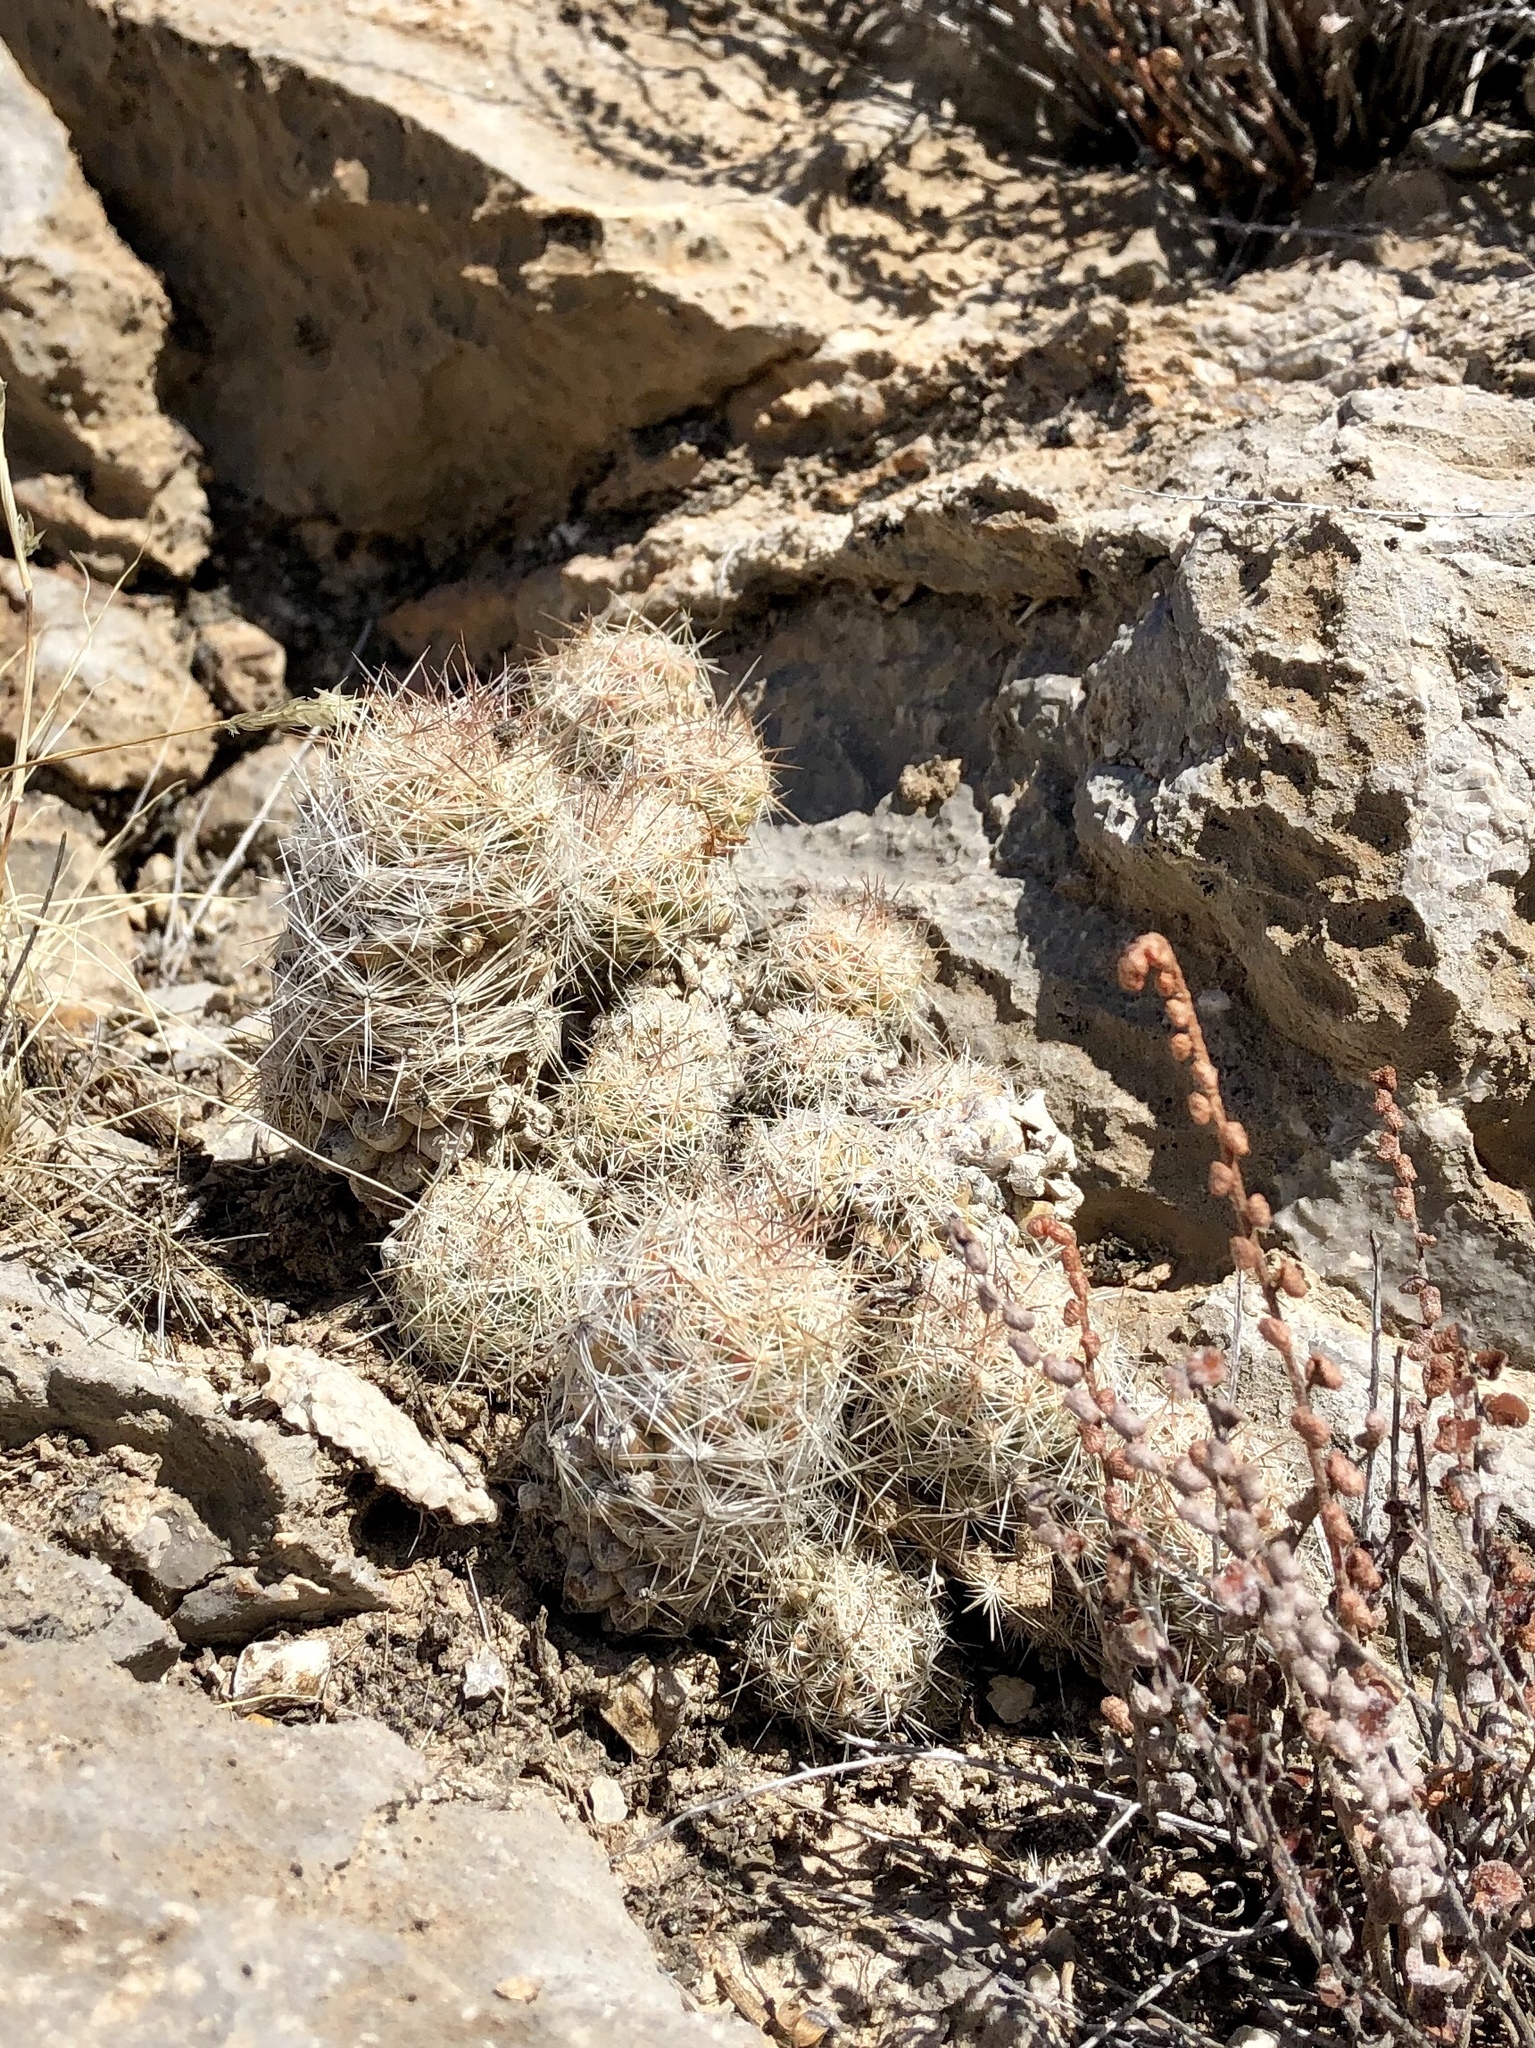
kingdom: Plantae
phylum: Tracheophyta
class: Magnoliopsida
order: Caryophyllales
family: Cactaceae
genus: Pelecyphora
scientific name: Pelecyphora tuberculosa
